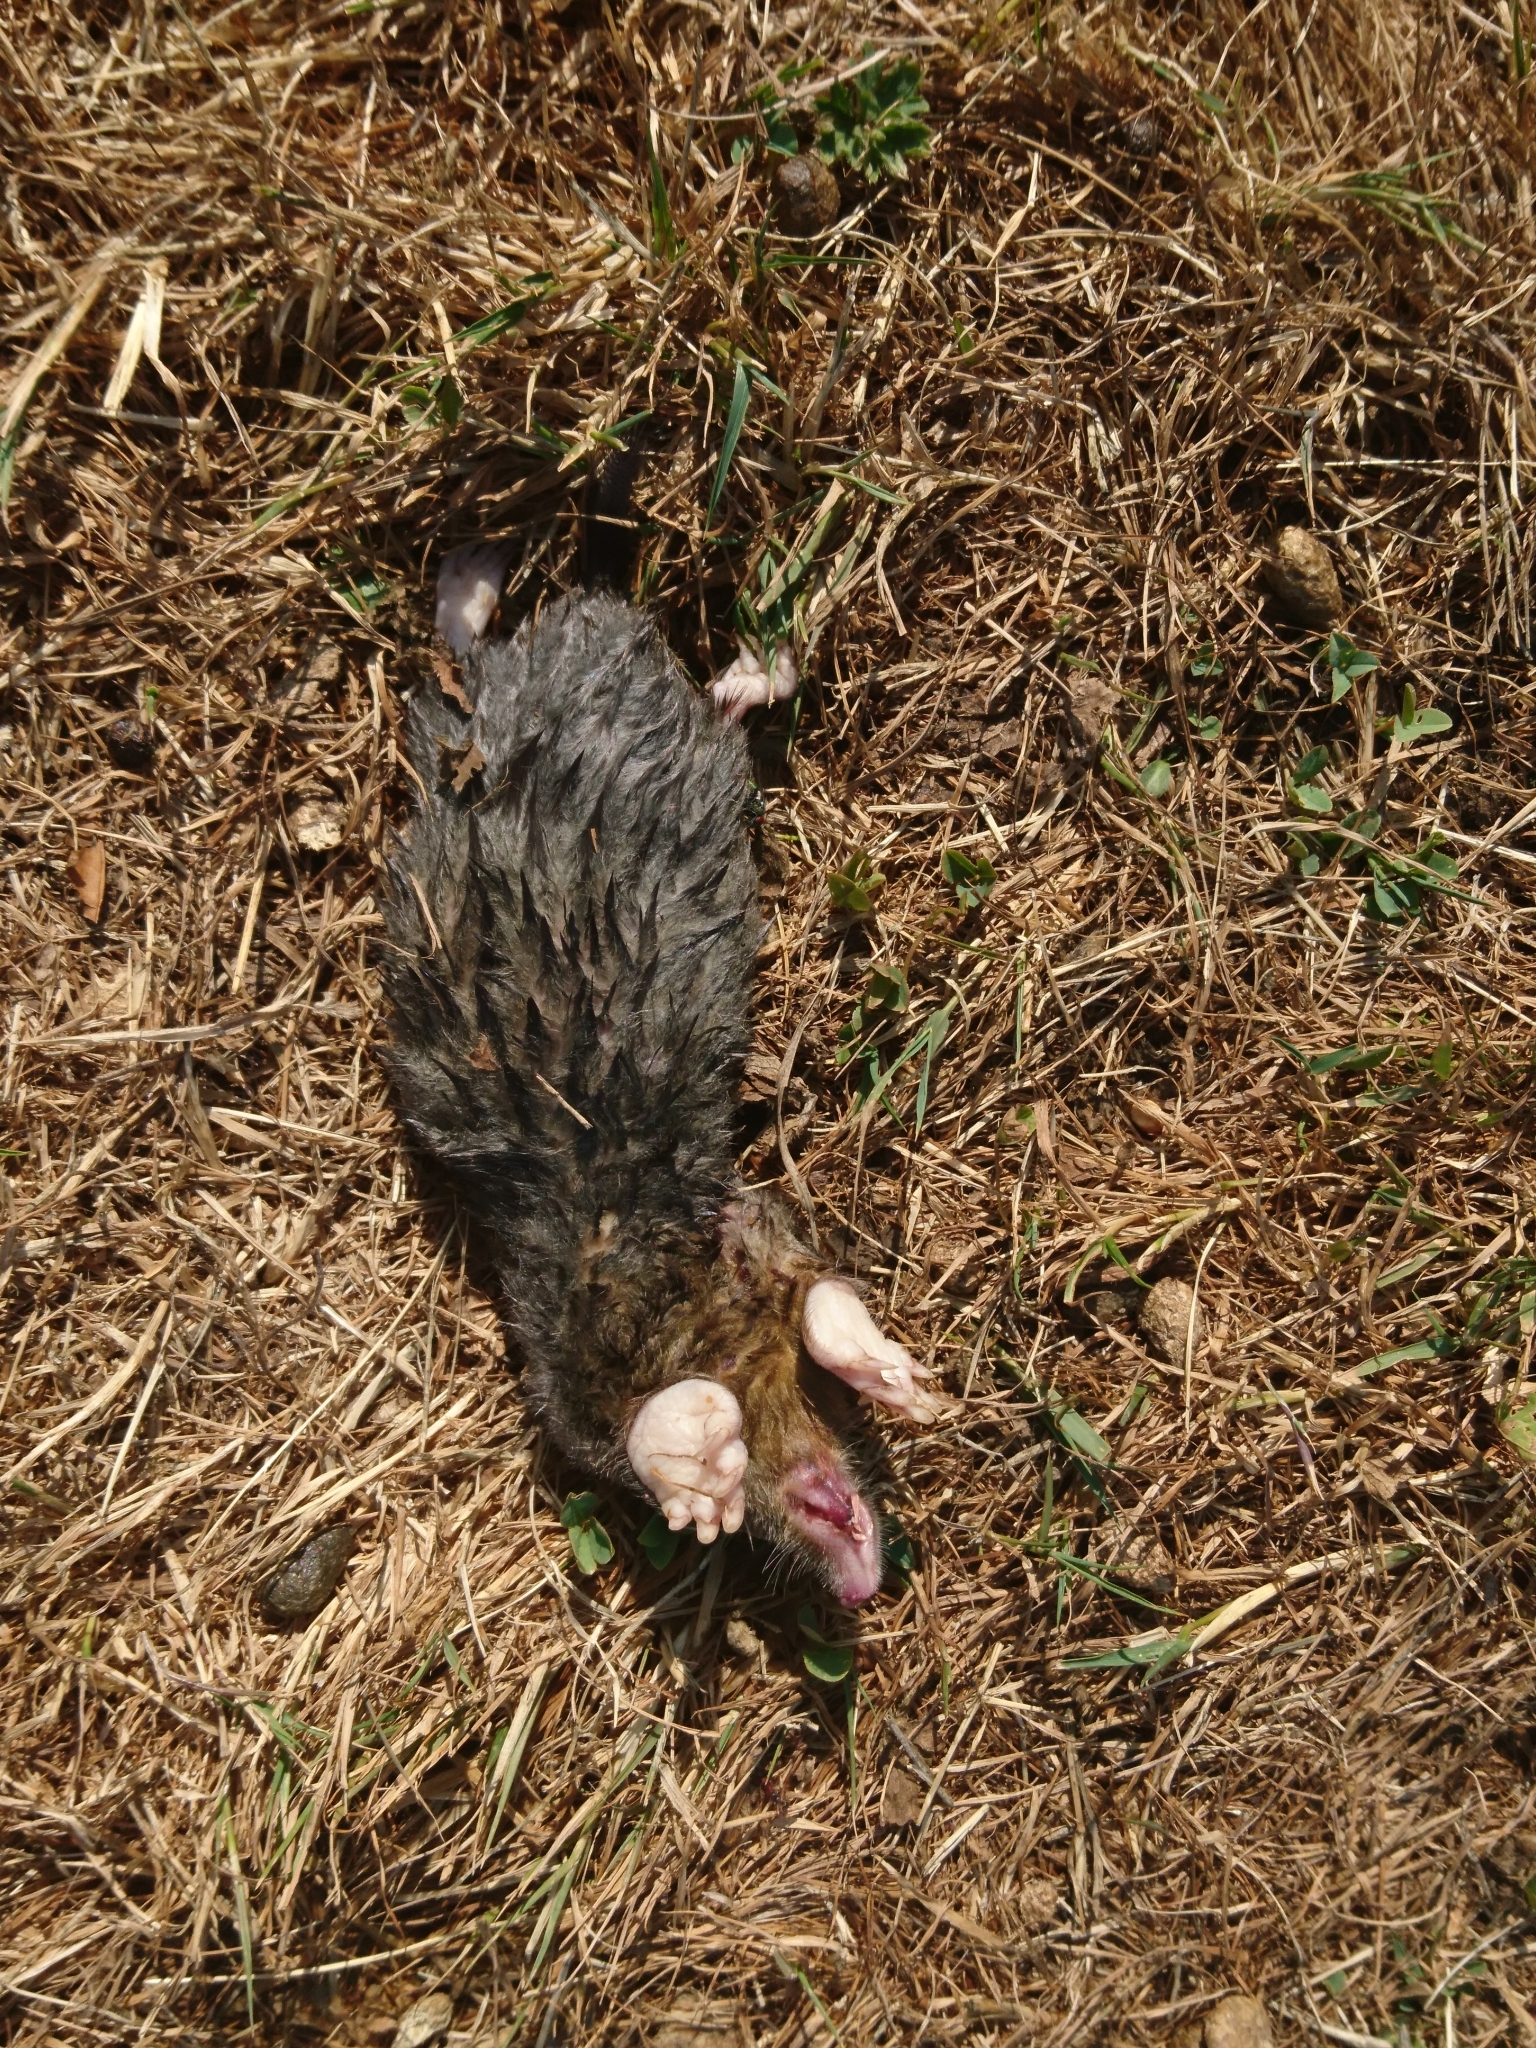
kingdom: Animalia
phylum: Chordata
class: Mammalia
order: Soricomorpha
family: Talpidae
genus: Talpa
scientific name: Talpa europaea
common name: European mole
